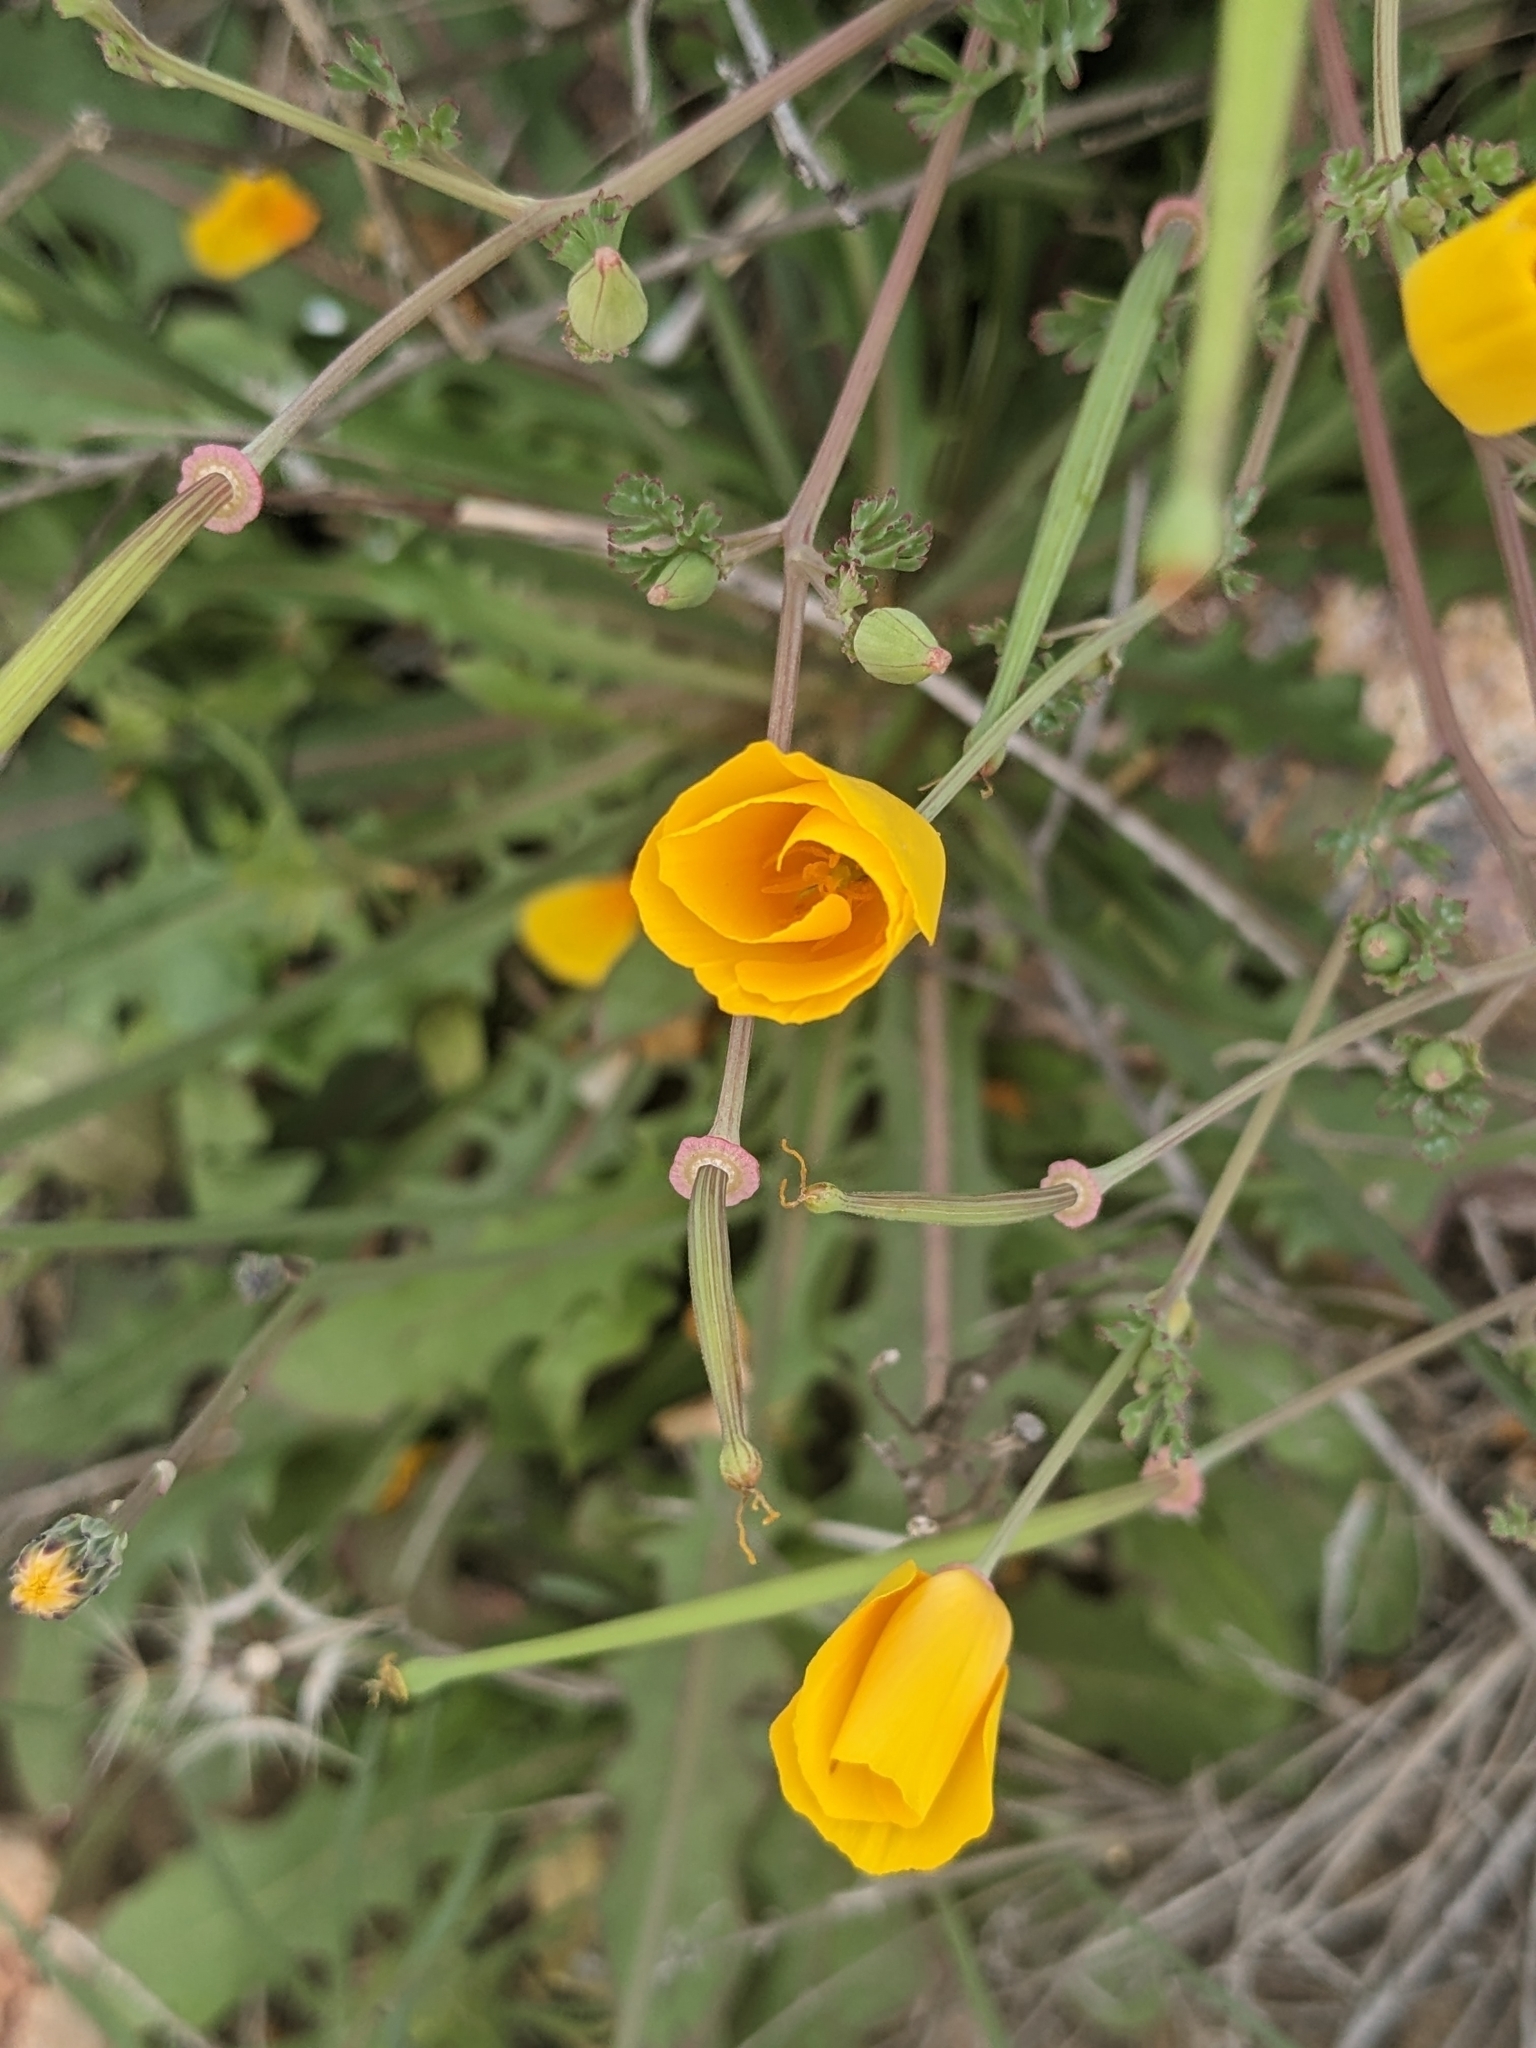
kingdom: Plantae
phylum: Tracheophyta
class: Magnoliopsida
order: Ranunculales
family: Papaveraceae
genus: Eschscholzia
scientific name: Eschscholzia californica
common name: California poppy
